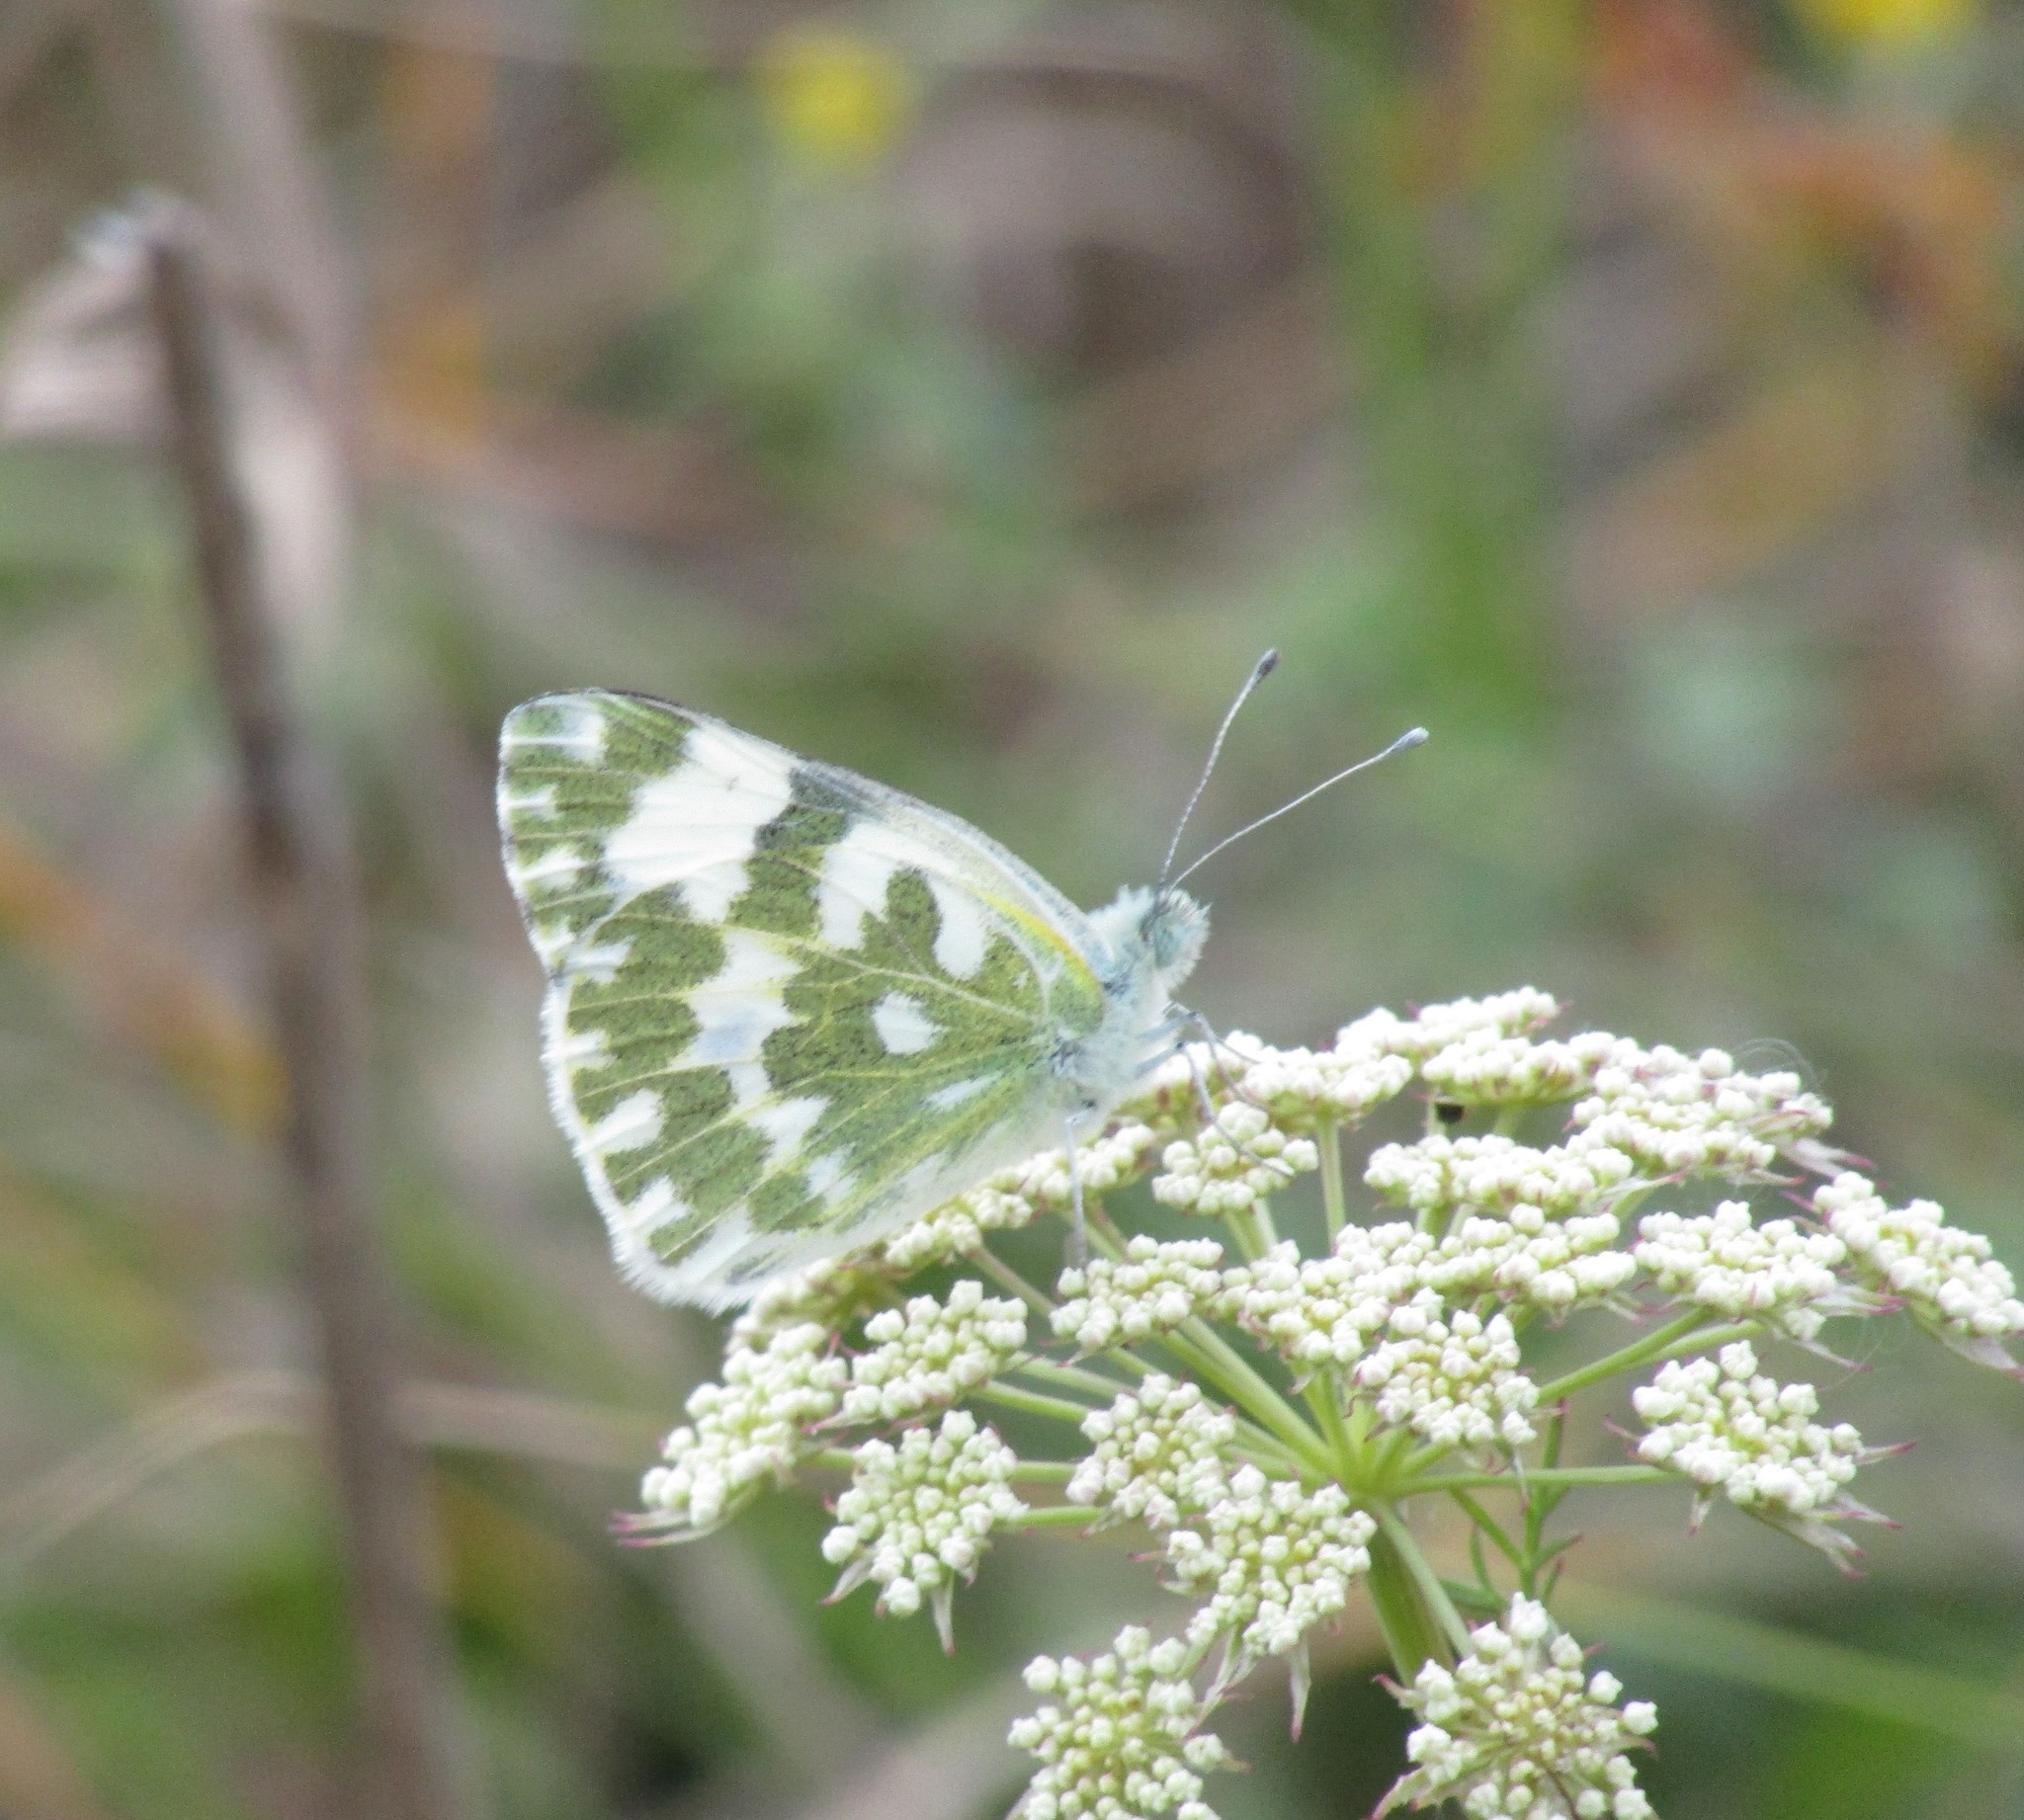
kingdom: Animalia
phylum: Arthropoda
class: Insecta
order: Lepidoptera
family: Pieridae
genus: Pontia
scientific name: Pontia edusa
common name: Eastern bath white
